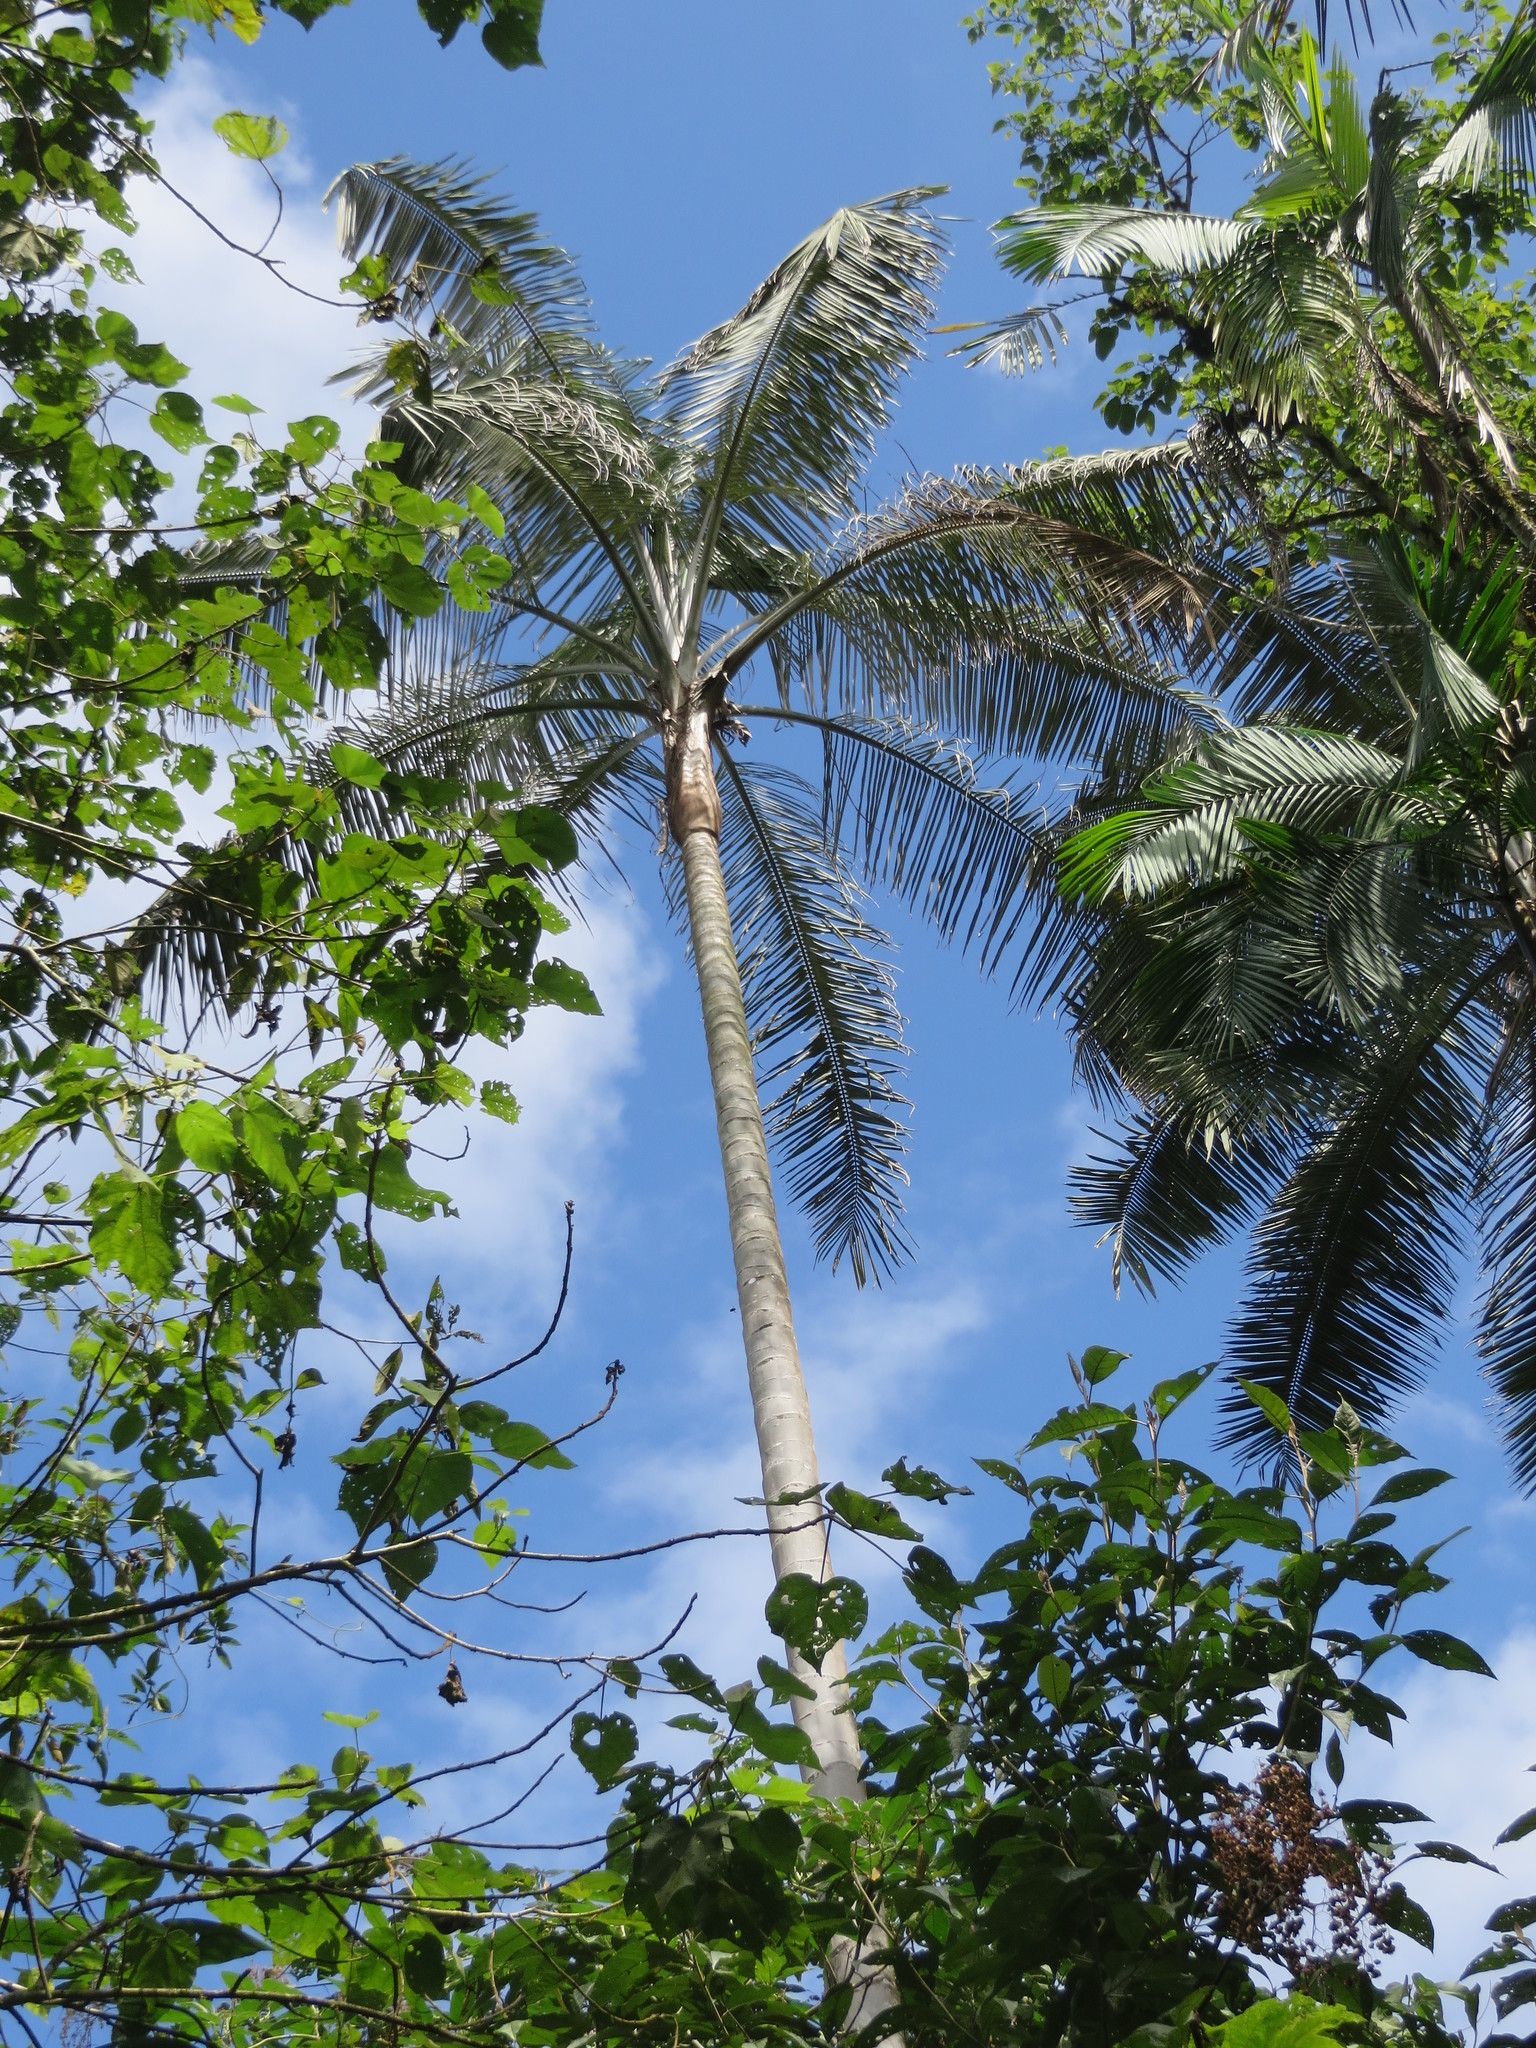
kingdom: Plantae
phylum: Tracheophyta
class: Liliopsida
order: Arecales
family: Arecaceae
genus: Ceroxylon
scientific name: Ceroxylon echinulatum
